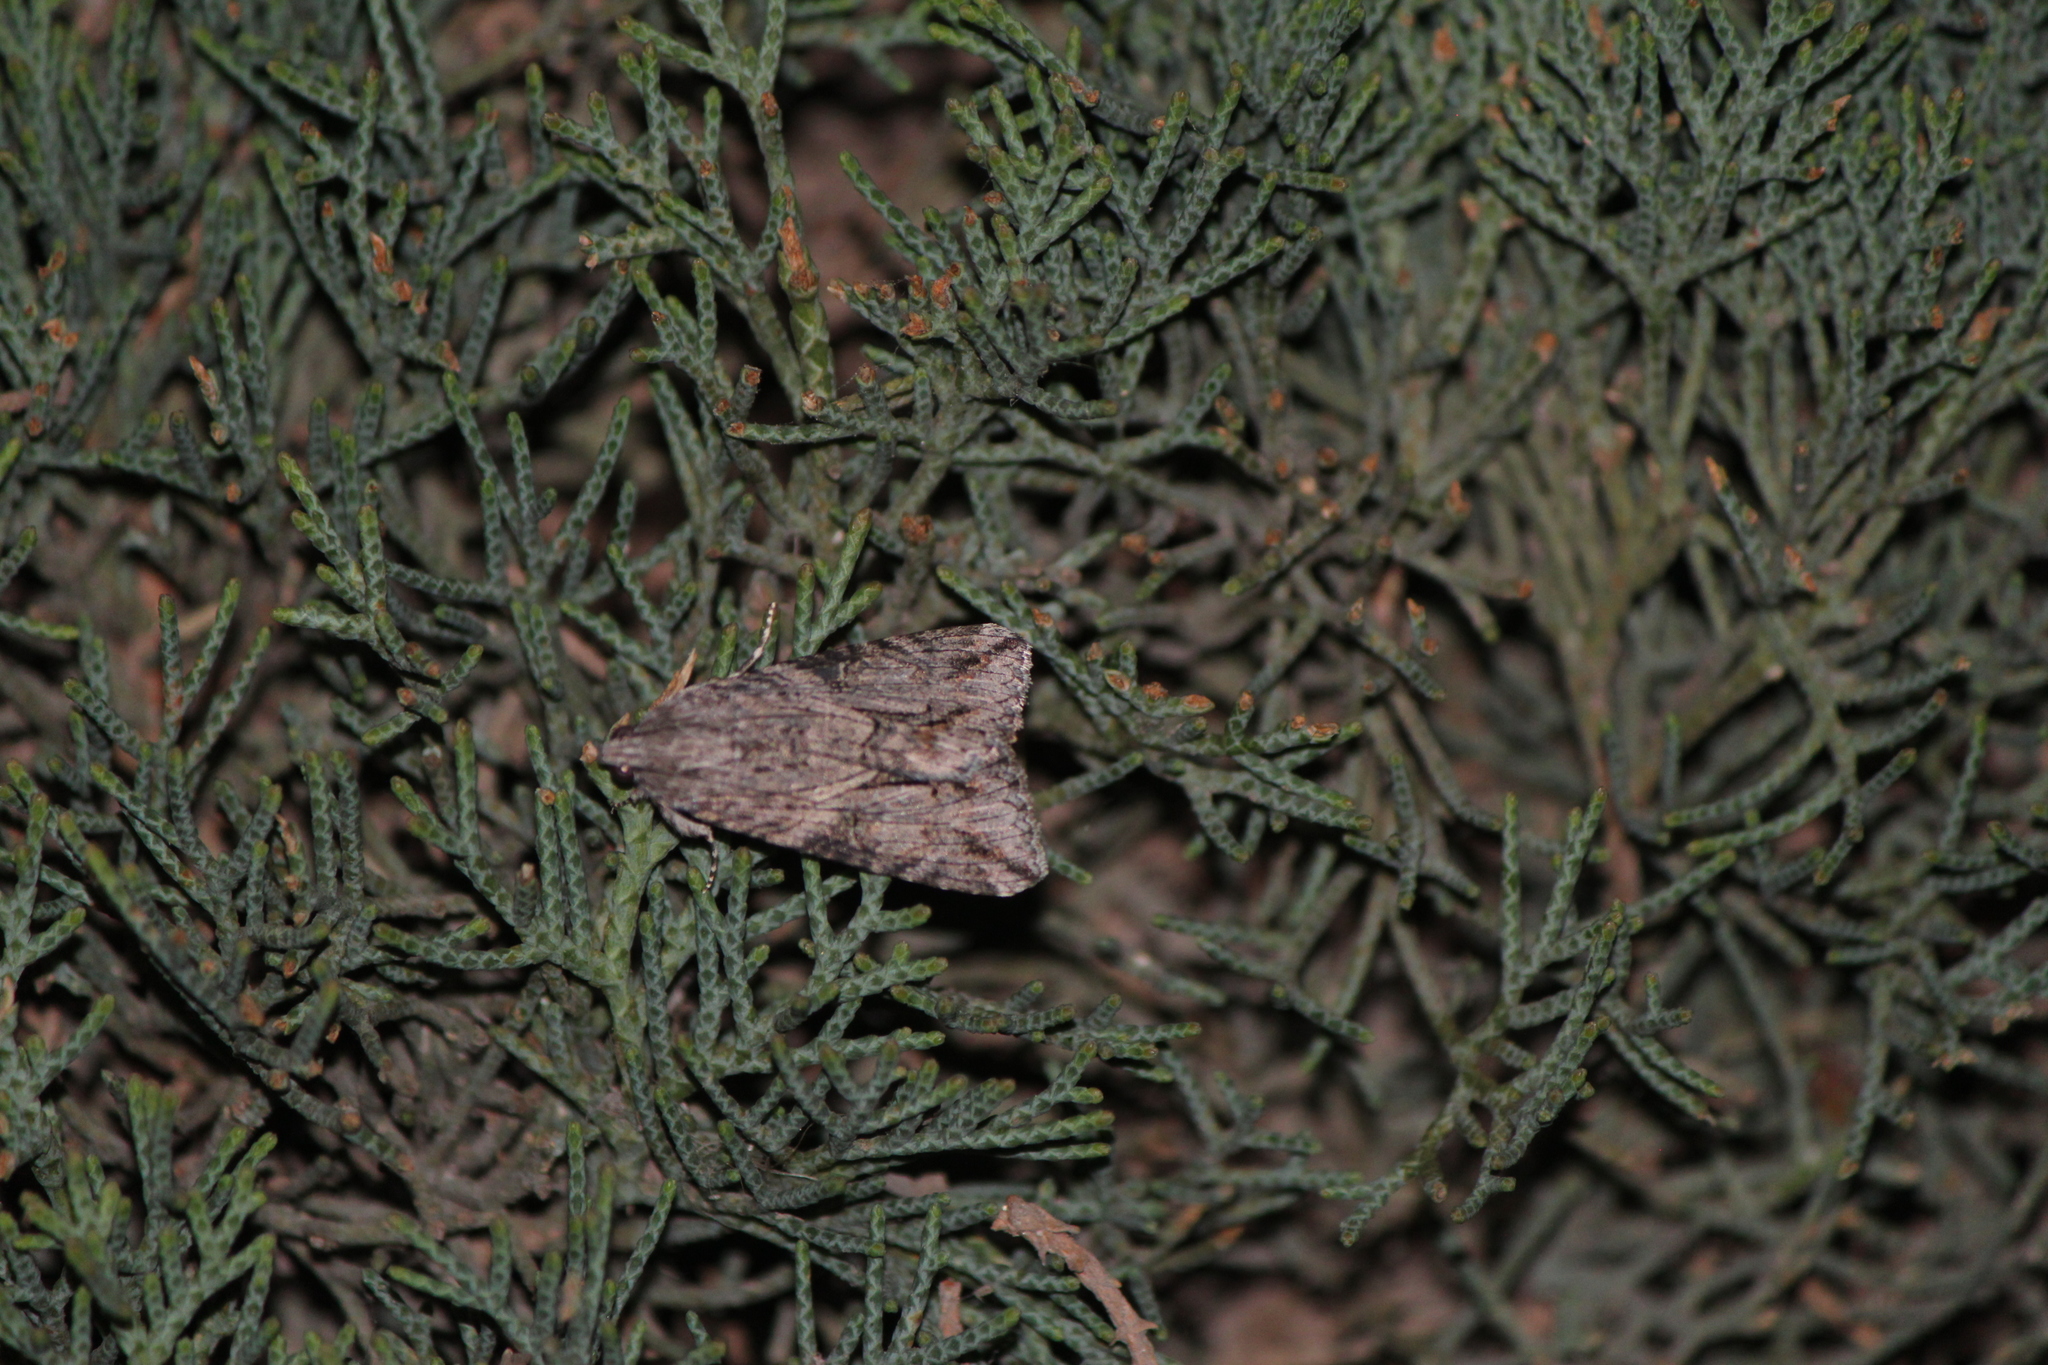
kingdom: Animalia
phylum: Arthropoda
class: Insecta
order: Lepidoptera
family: Erebidae
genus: Melipotis
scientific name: Melipotis jucunda
